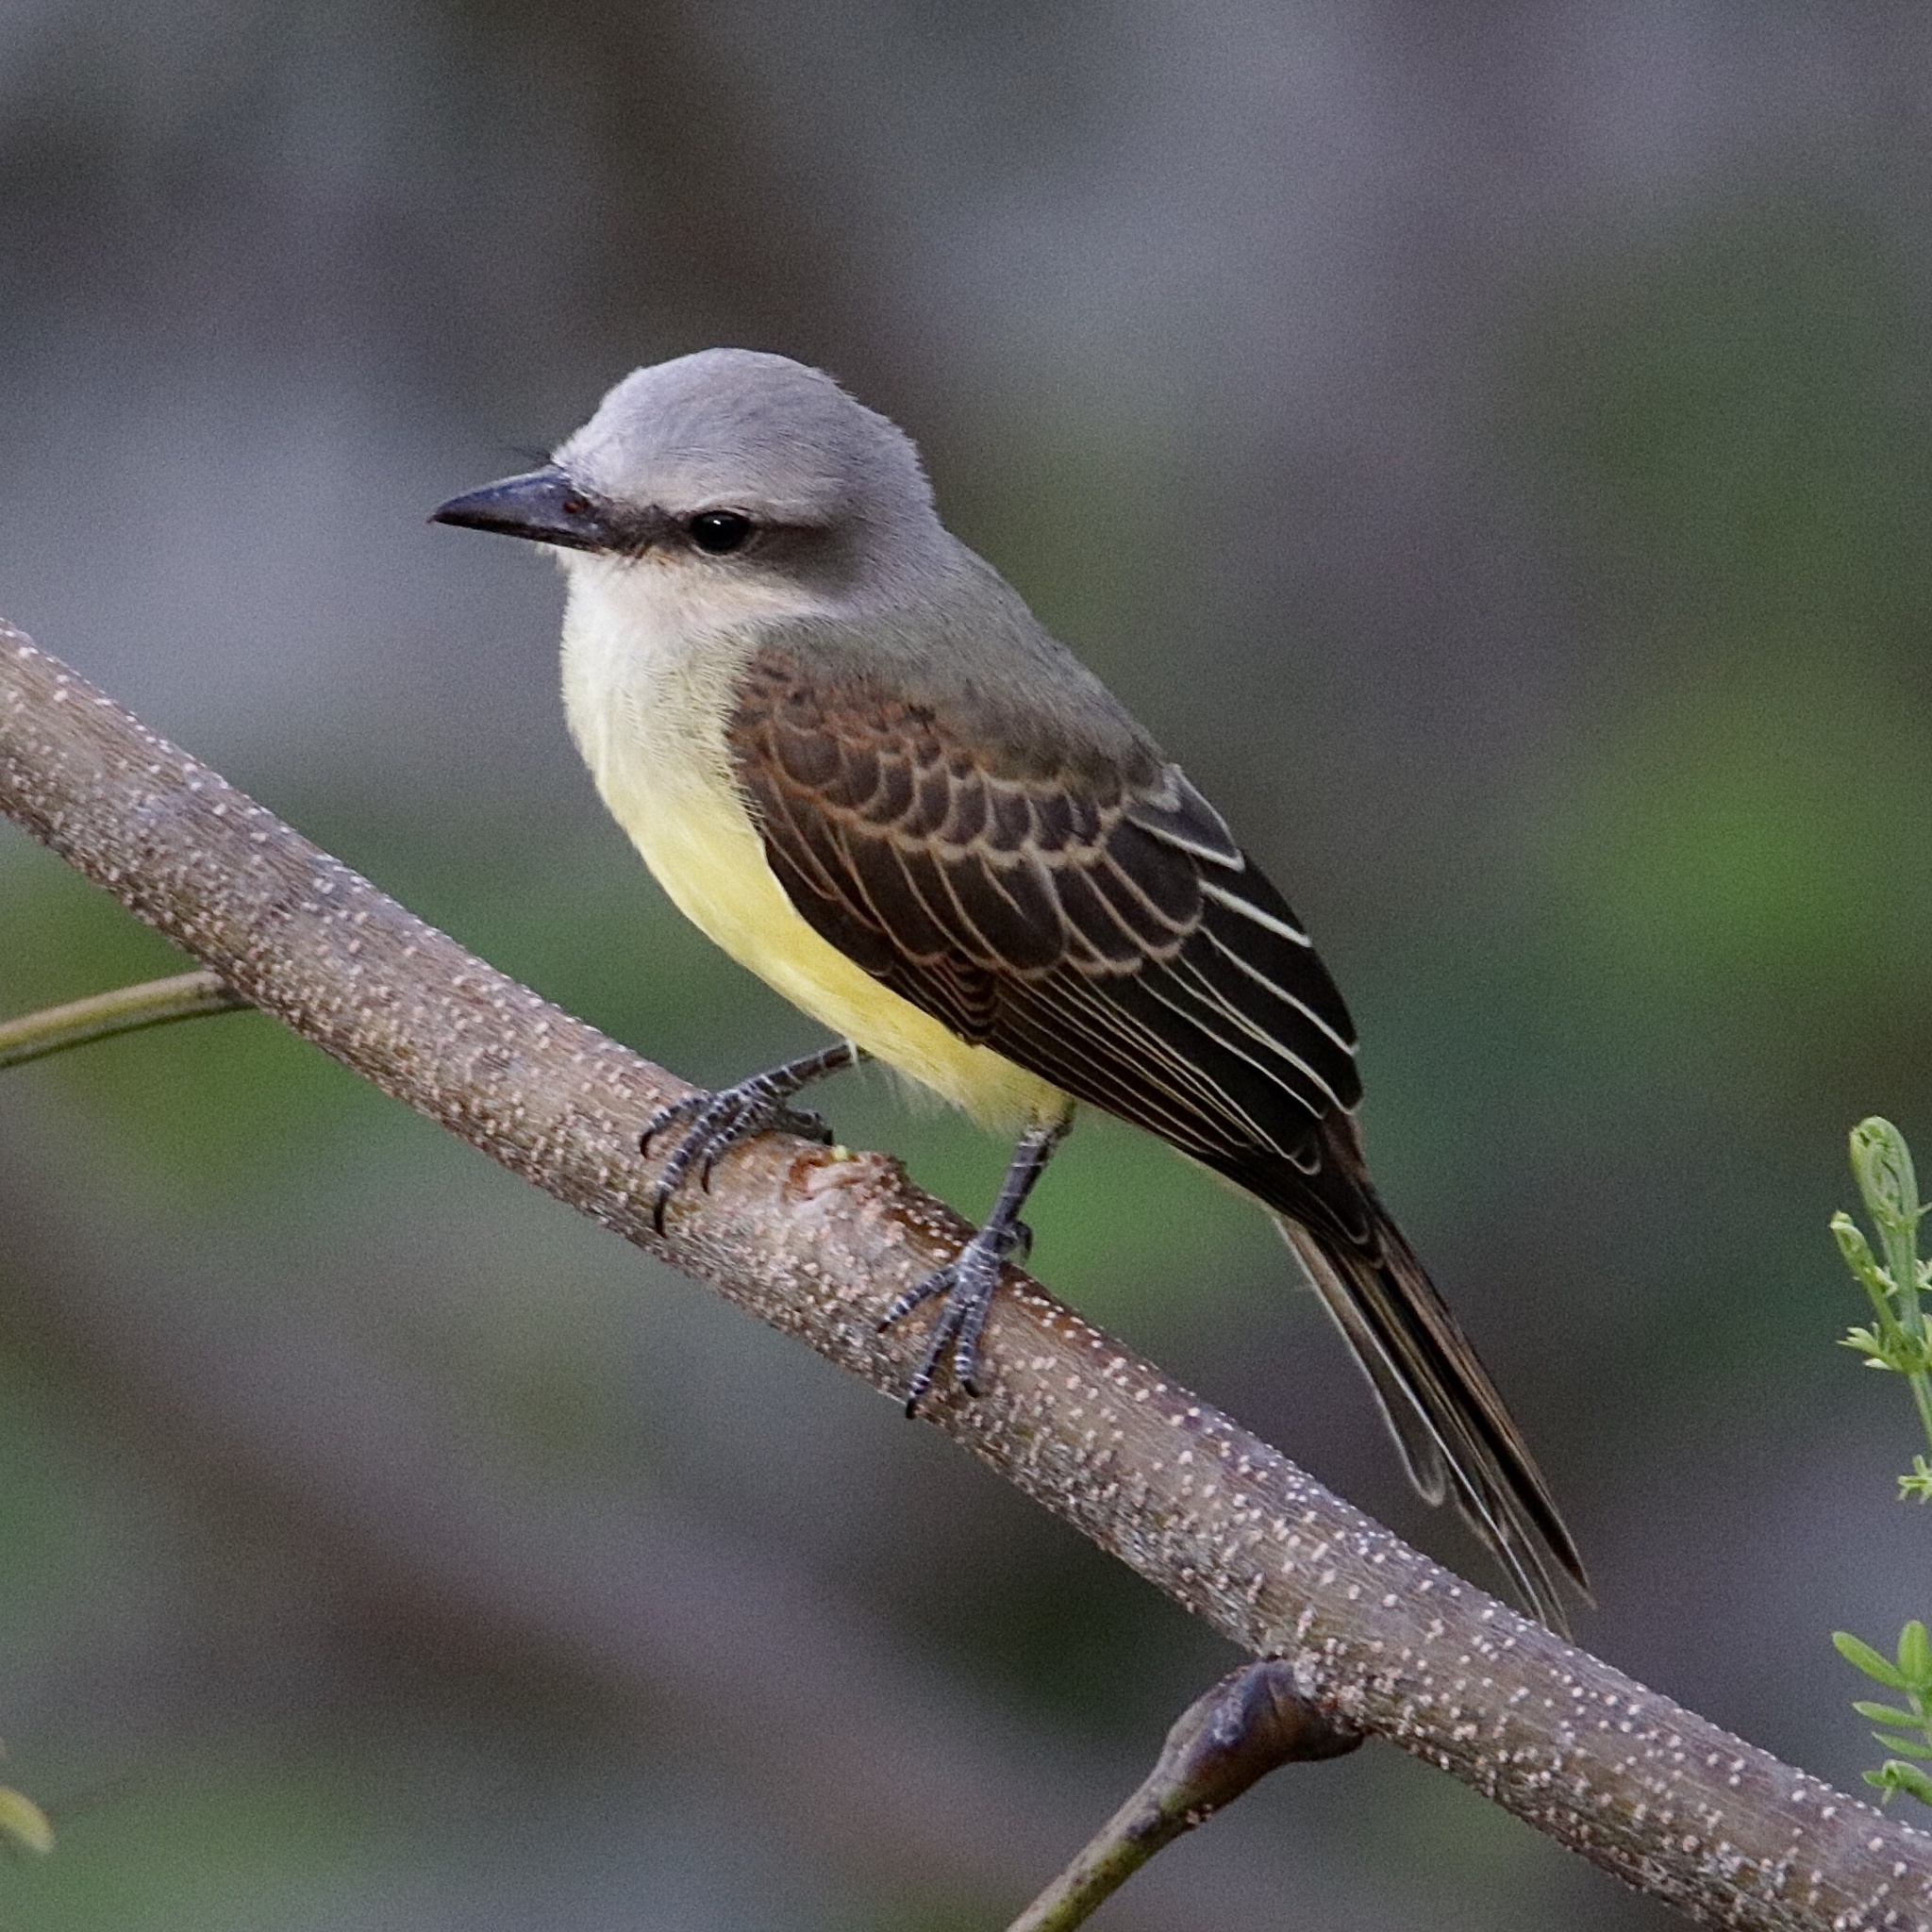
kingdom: Animalia
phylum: Chordata
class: Aves
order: Passeriformes
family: Tyrannidae
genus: Tyrannus
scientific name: Tyrannus melancholicus
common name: Tropical kingbird
